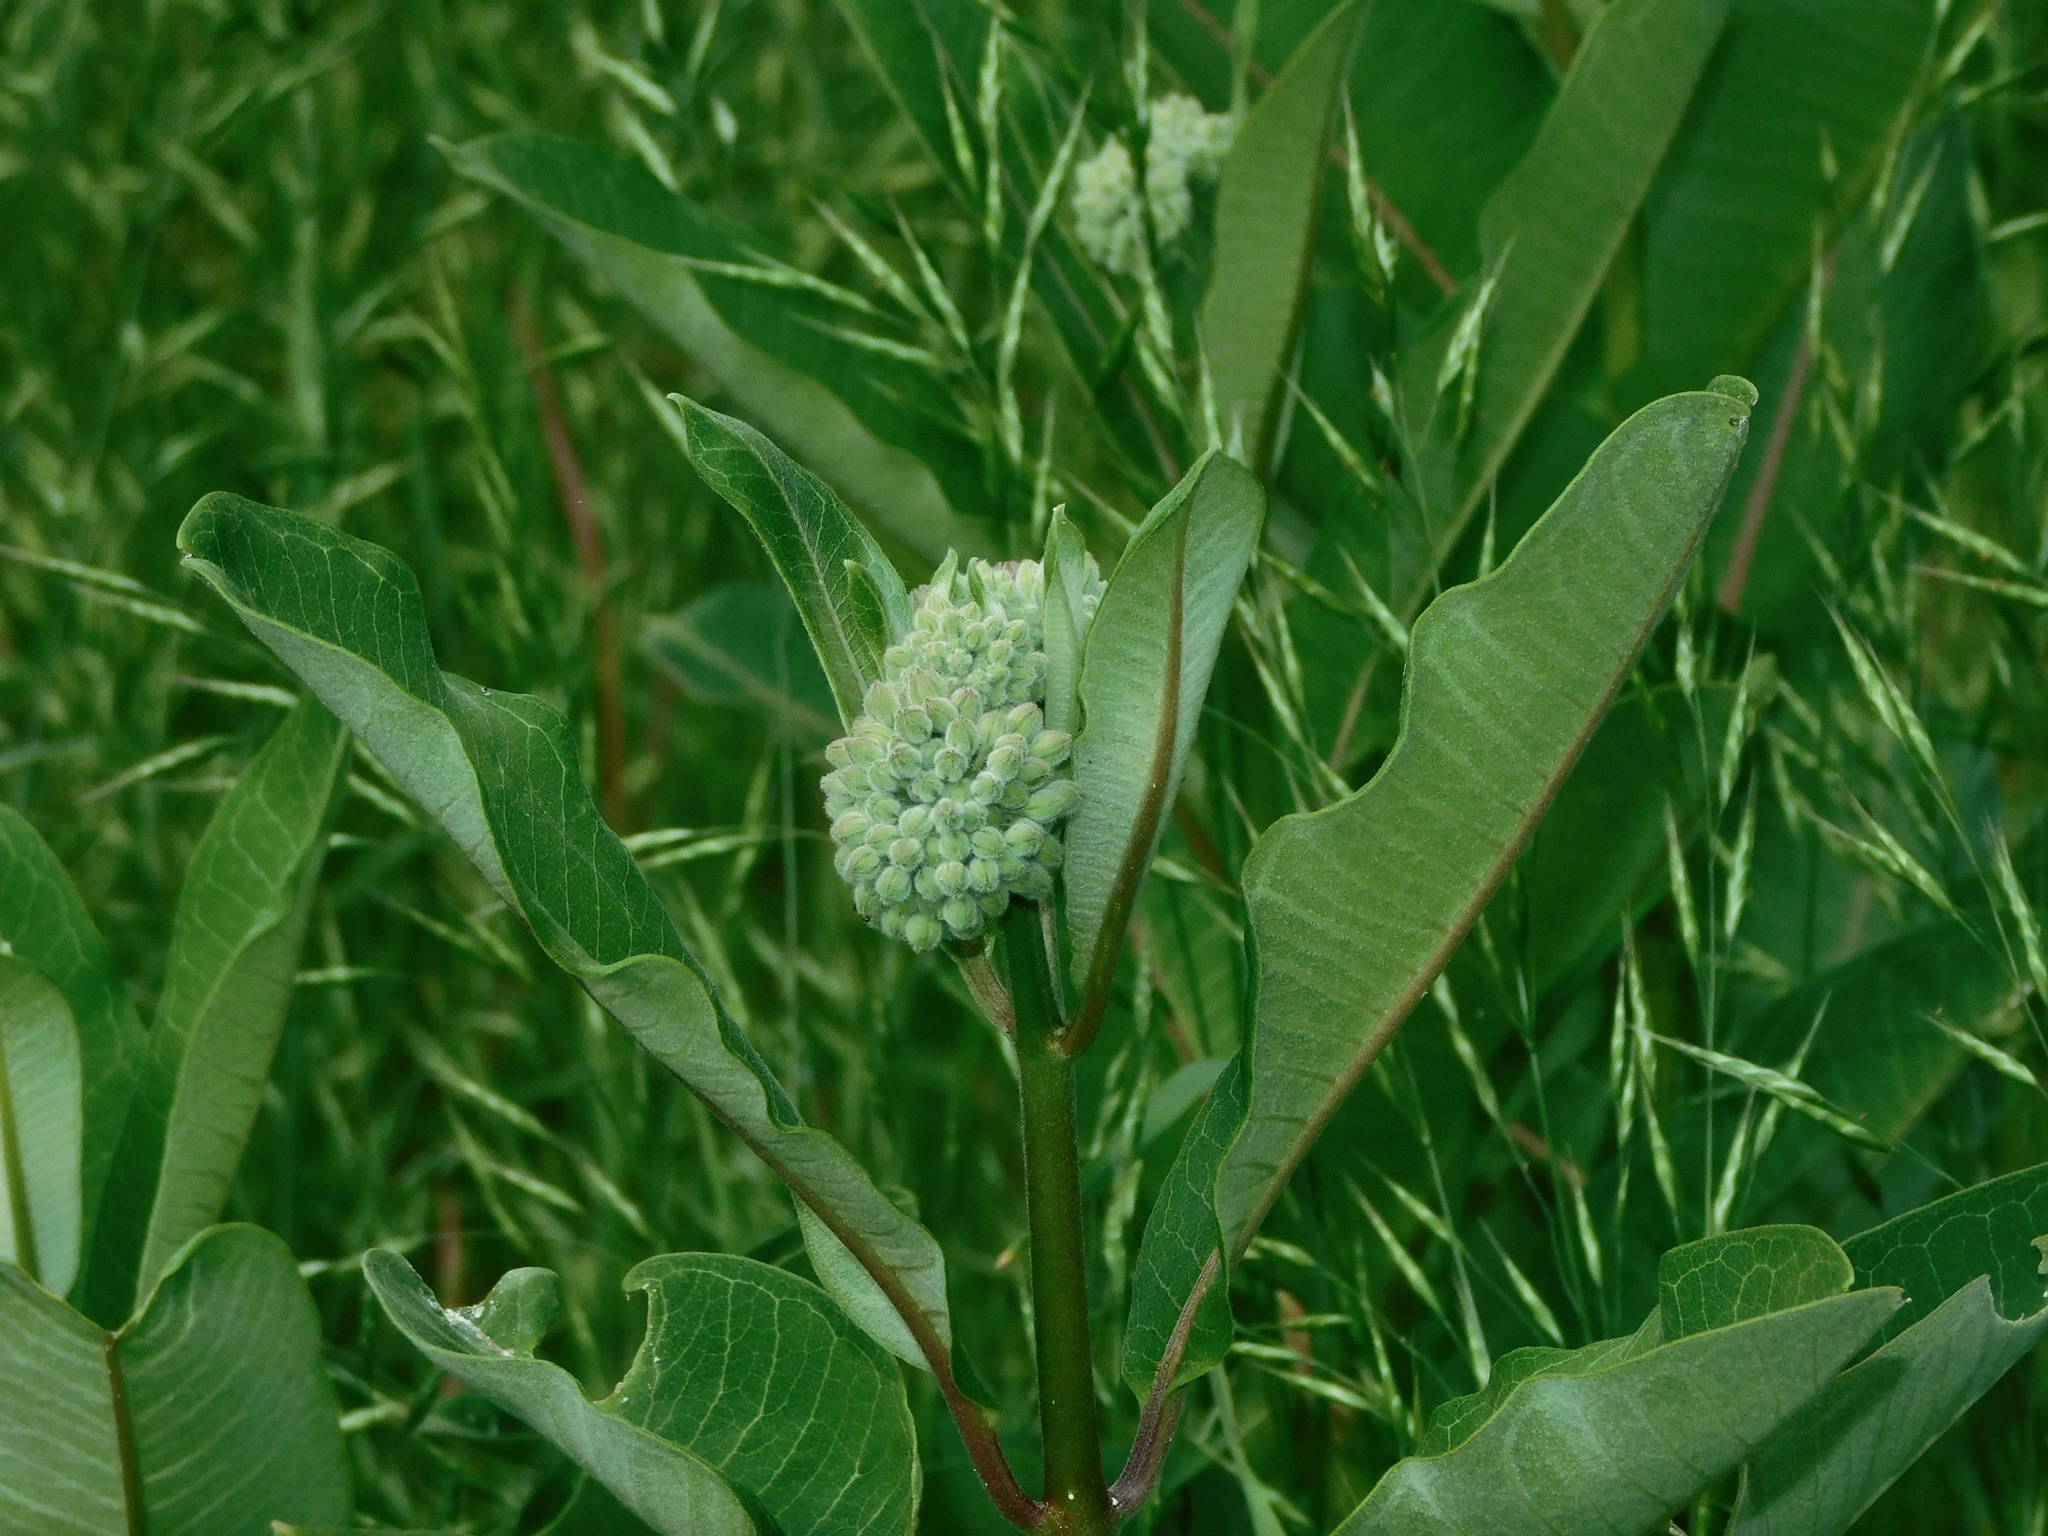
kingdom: Plantae
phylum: Tracheophyta
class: Magnoliopsida
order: Gentianales
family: Apocynaceae
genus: Asclepias
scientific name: Asclepias syriaca
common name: Common milkweed
